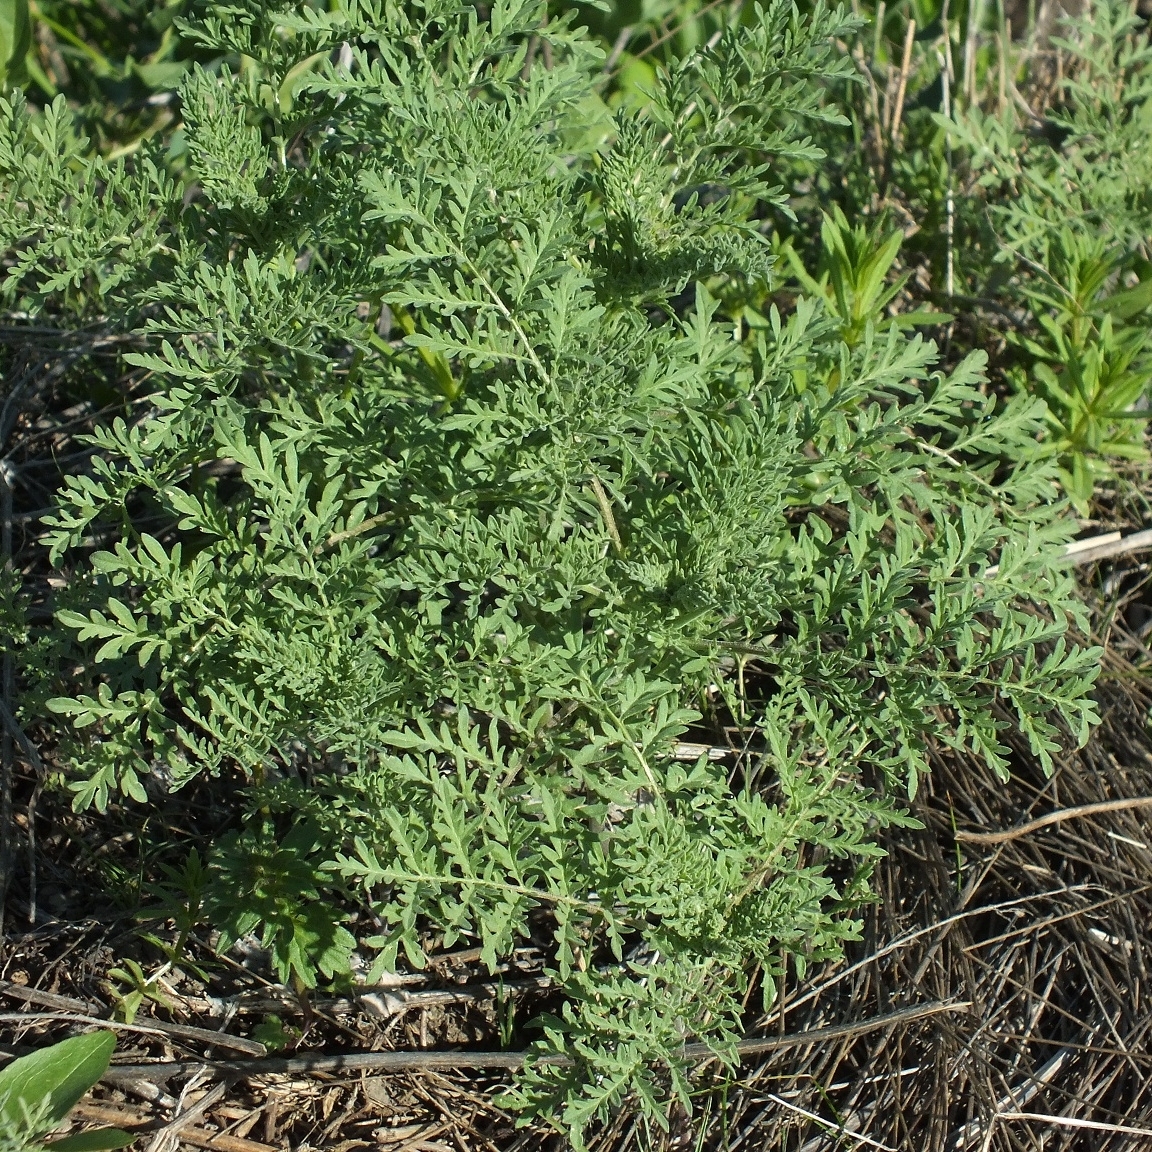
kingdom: Plantae
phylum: Tracheophyta
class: Magnoliopsida
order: Brassicales
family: Brassicaceae
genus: Descurainia
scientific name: Descurainia sophia
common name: Flixweed
